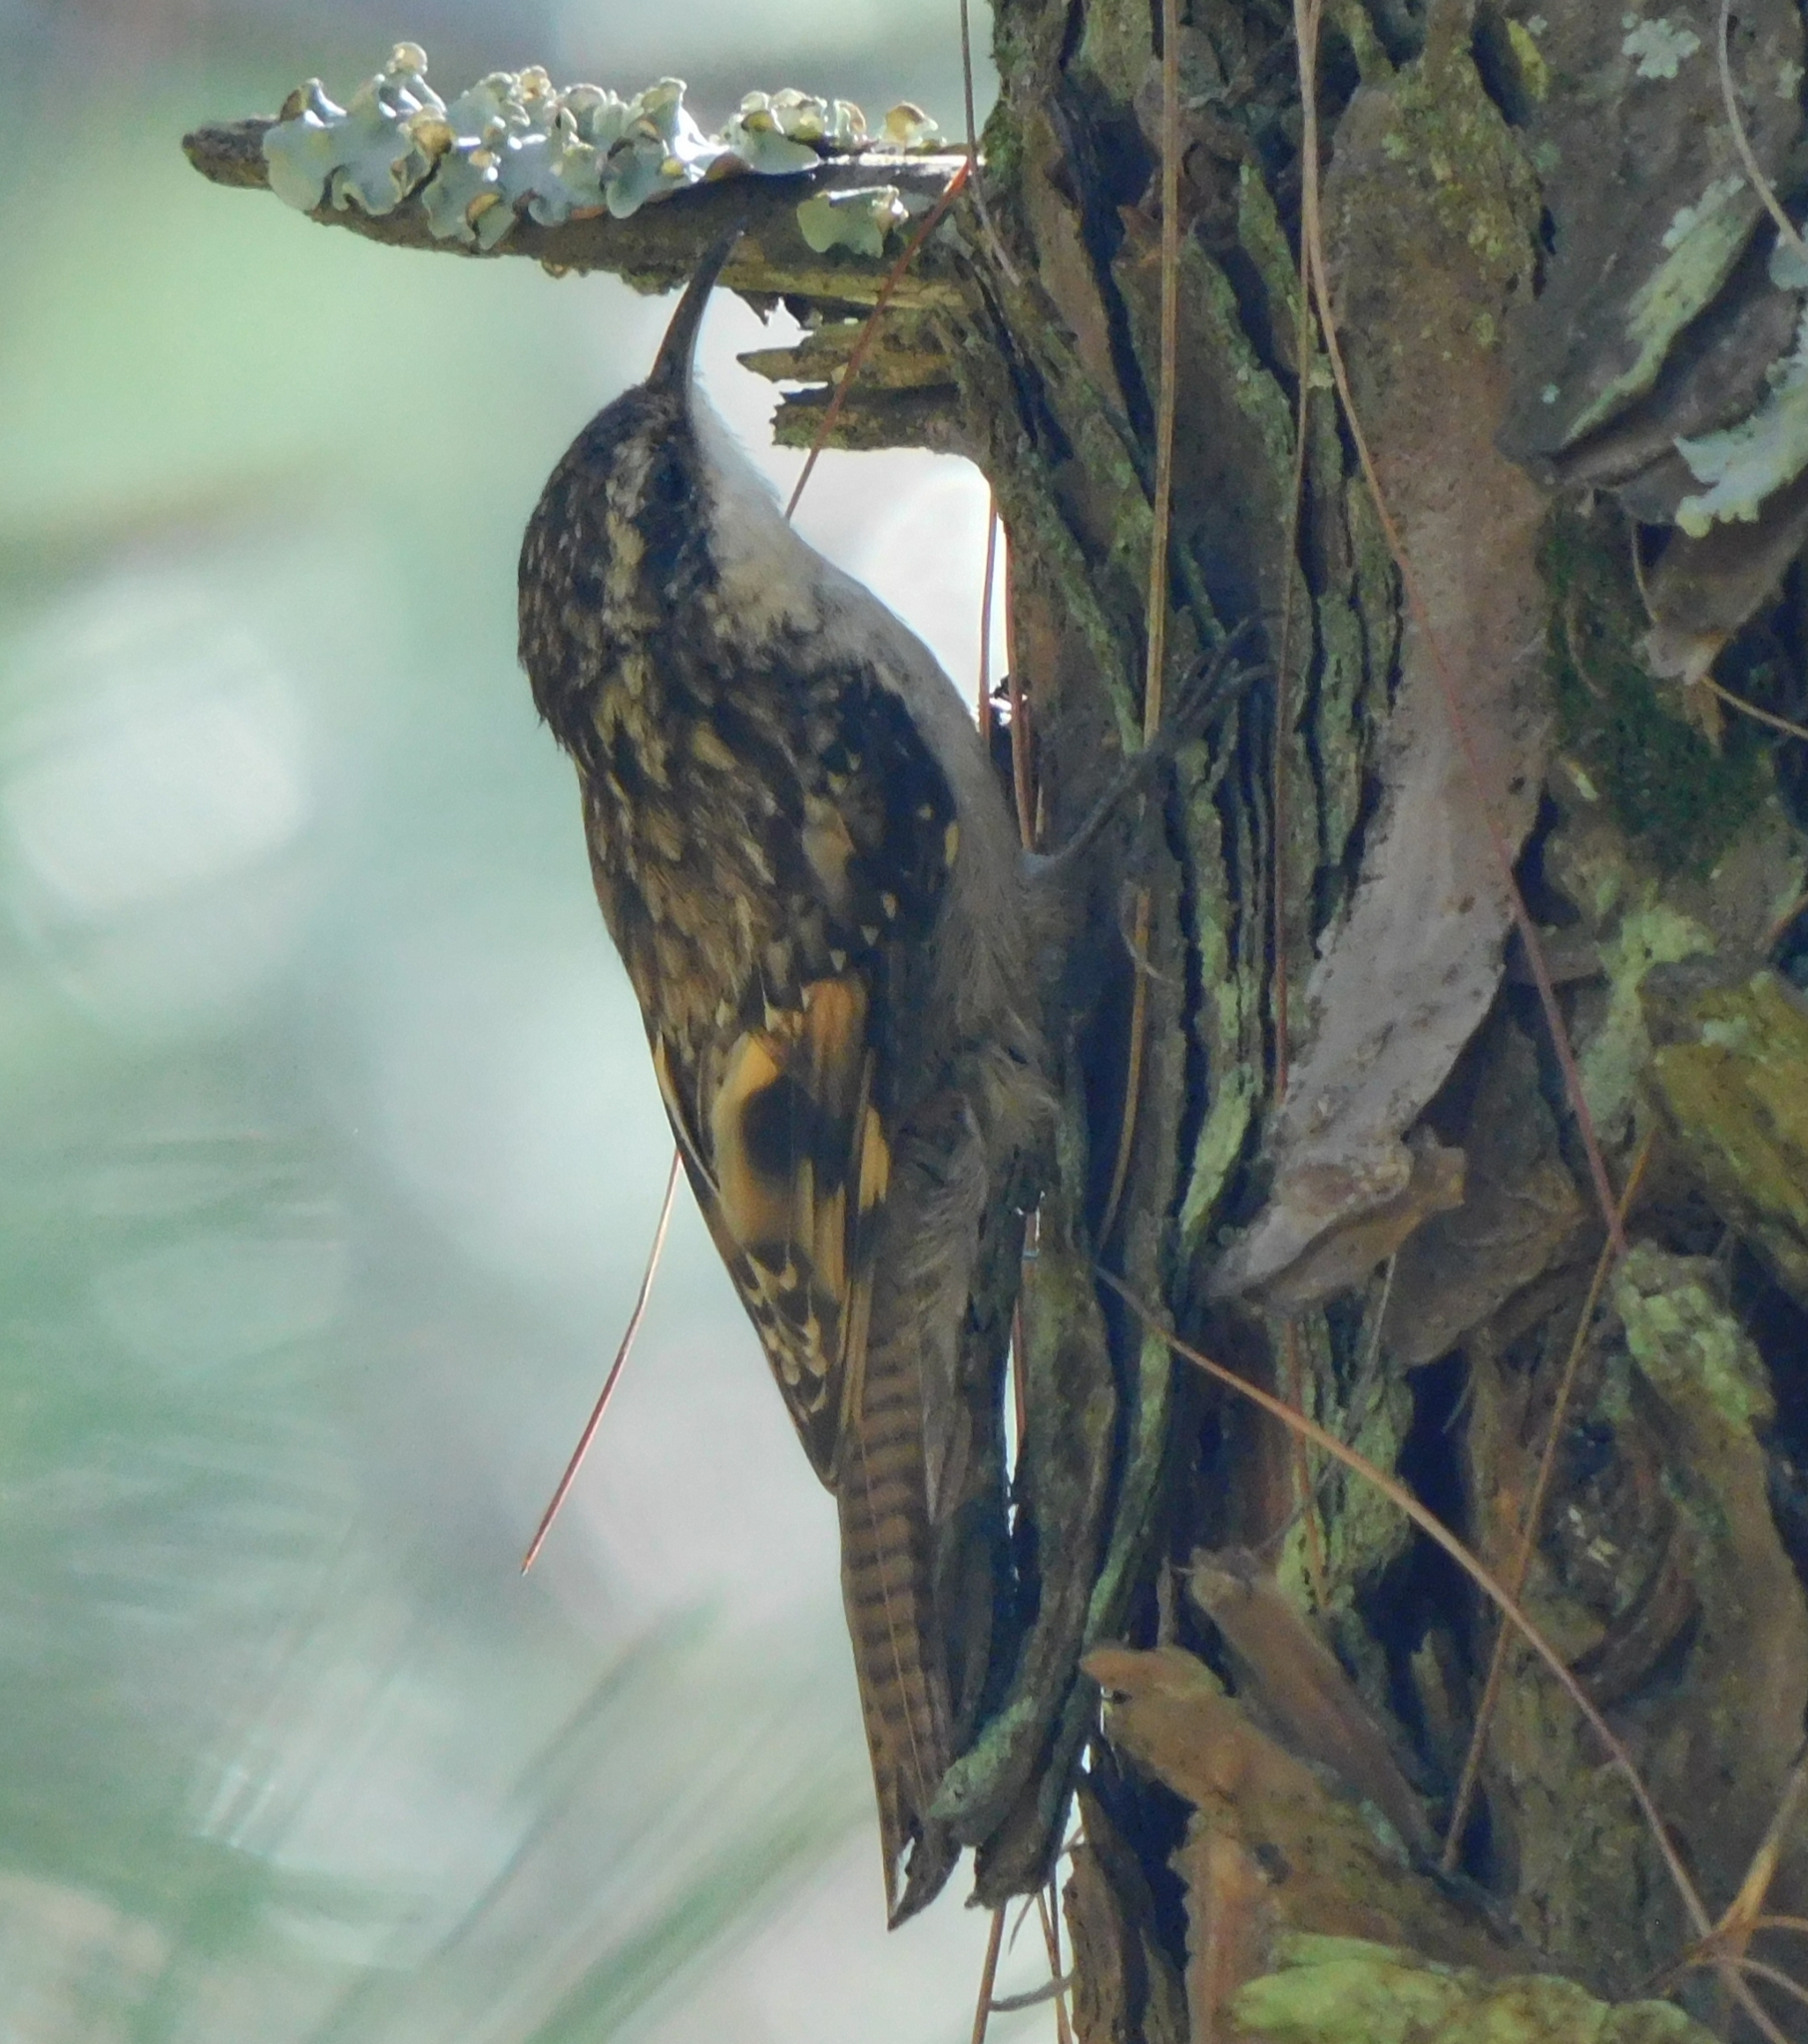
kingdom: Animalia
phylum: Chordata
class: Aves
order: Passeriformes
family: Certhiidae
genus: Certhia
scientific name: Certhia himalayana
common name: Bar-tailed treecreeper
